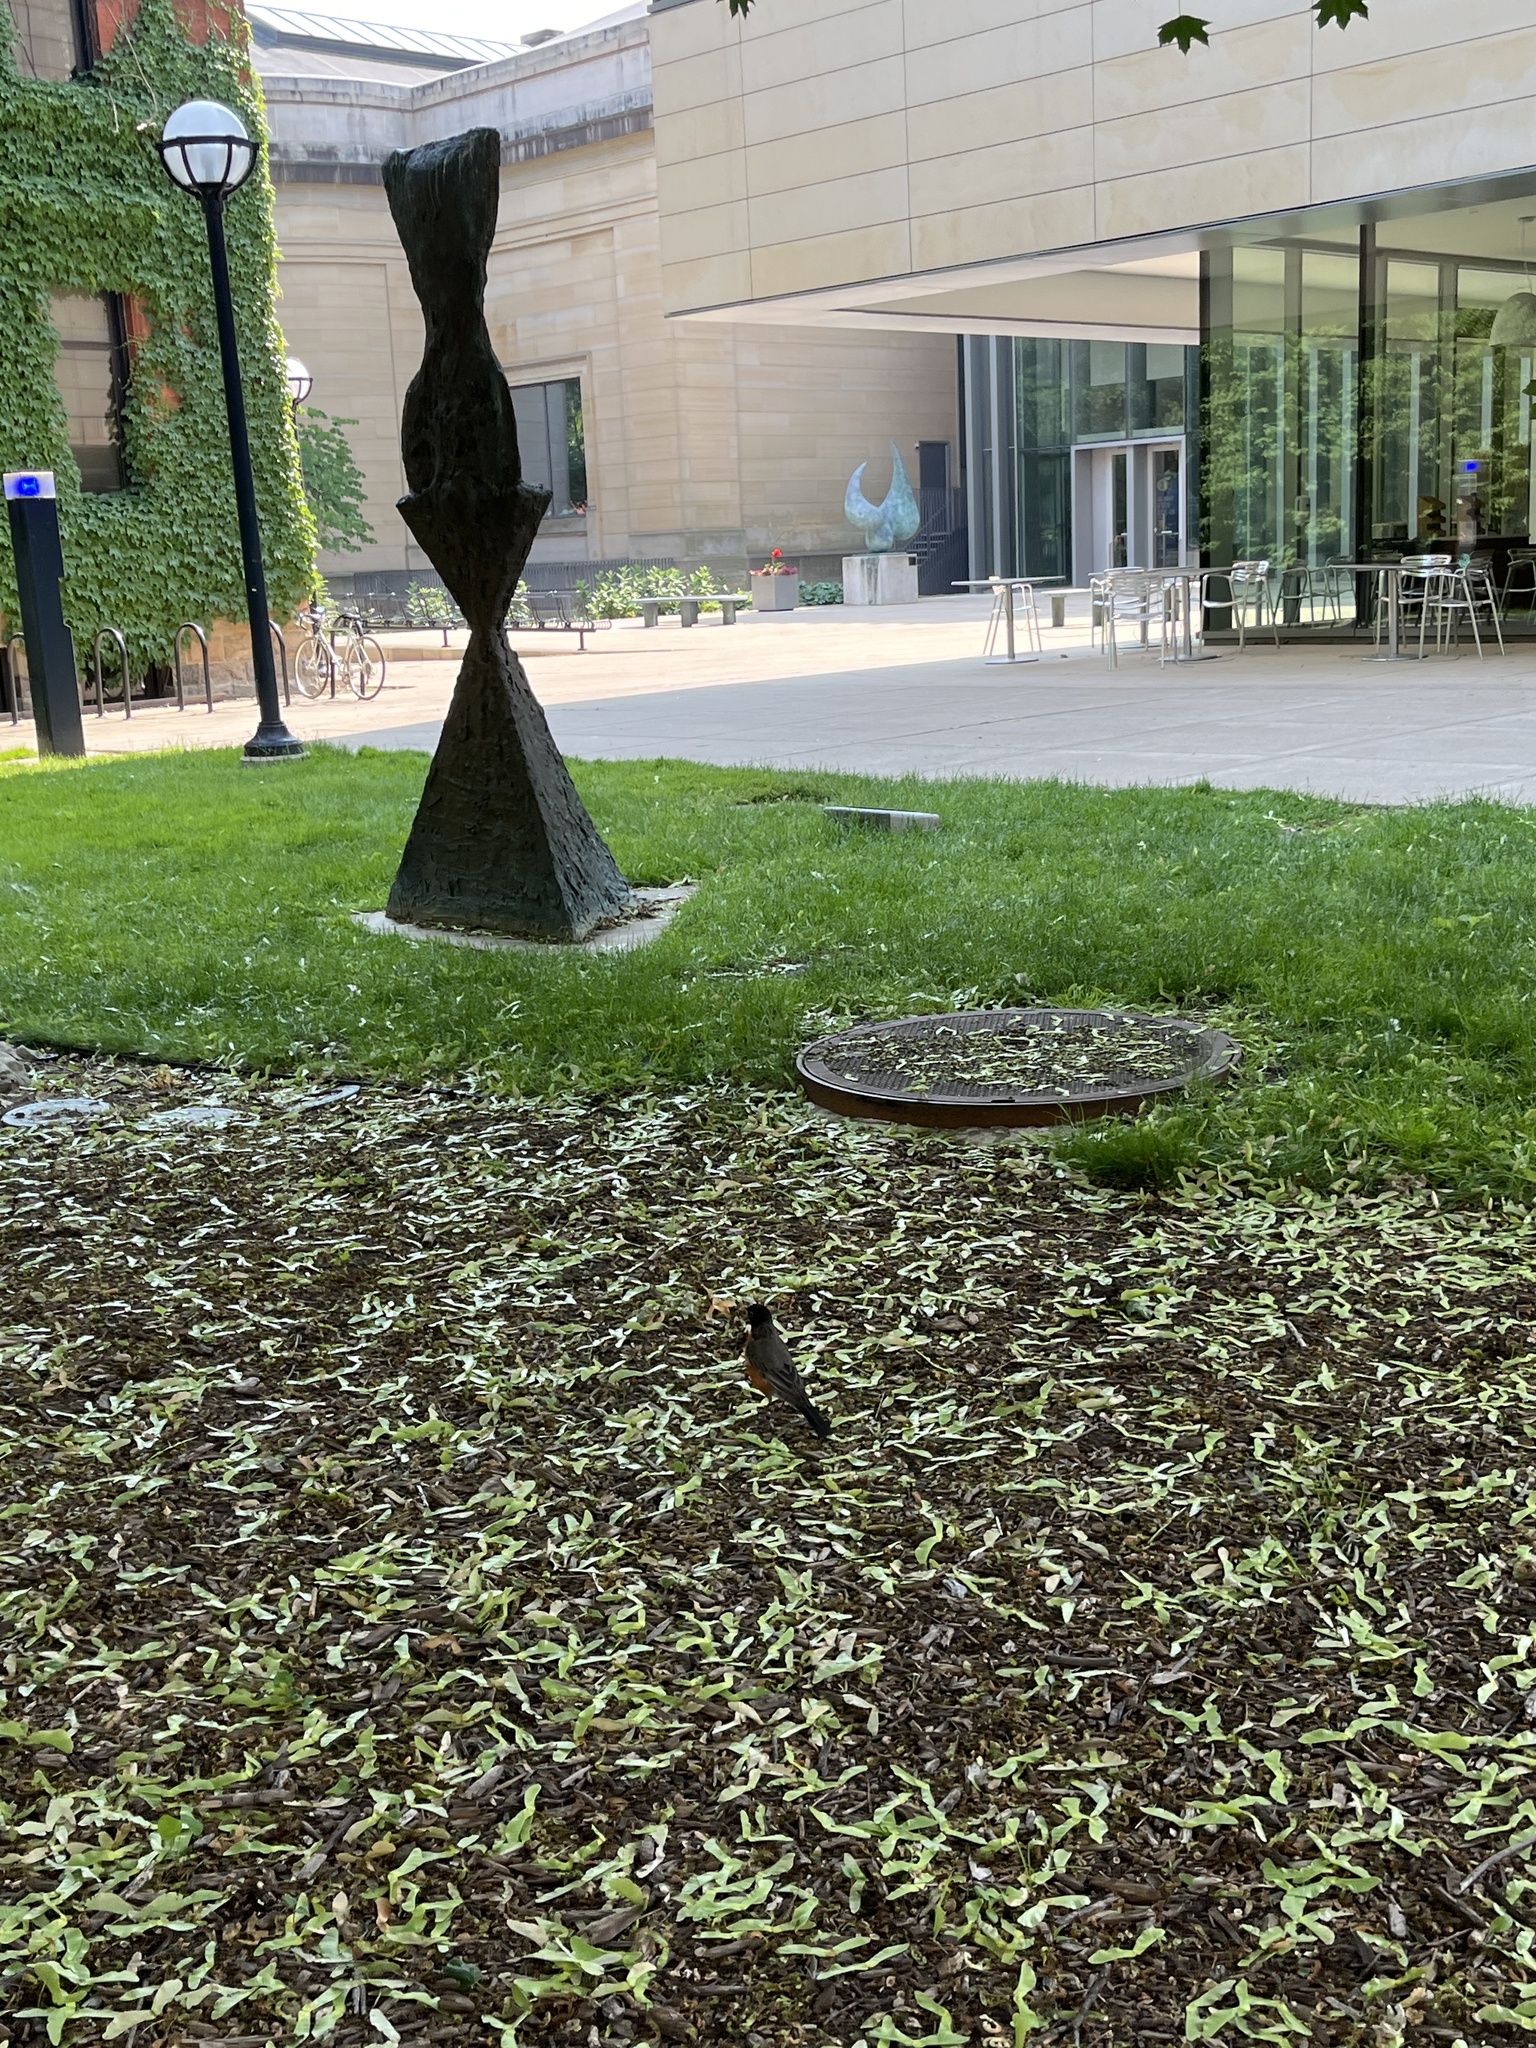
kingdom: Animalia
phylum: Chordata
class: Aves
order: Passeriformes
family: Turdidae
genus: Turdus
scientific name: Turdus migratorius
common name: American robin
